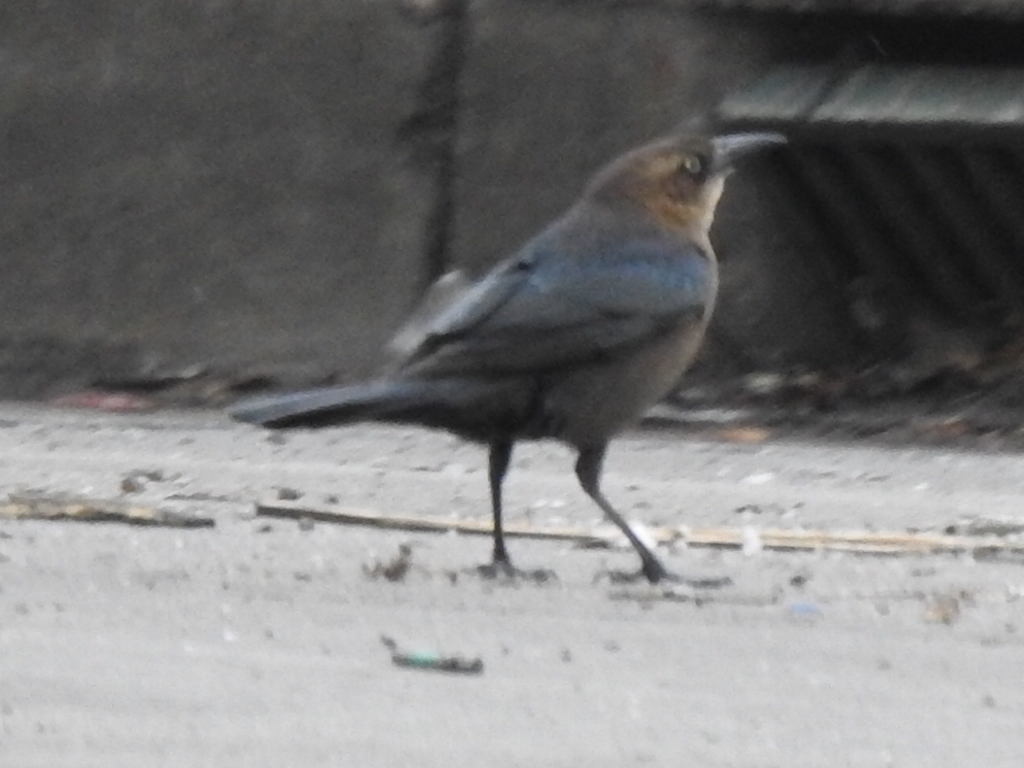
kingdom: Animalia
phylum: Chordata
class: Aves
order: Passeriformes
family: Icteridae
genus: Quiscalus
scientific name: Quiscalus mexicanus
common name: Great-tailed grackle
